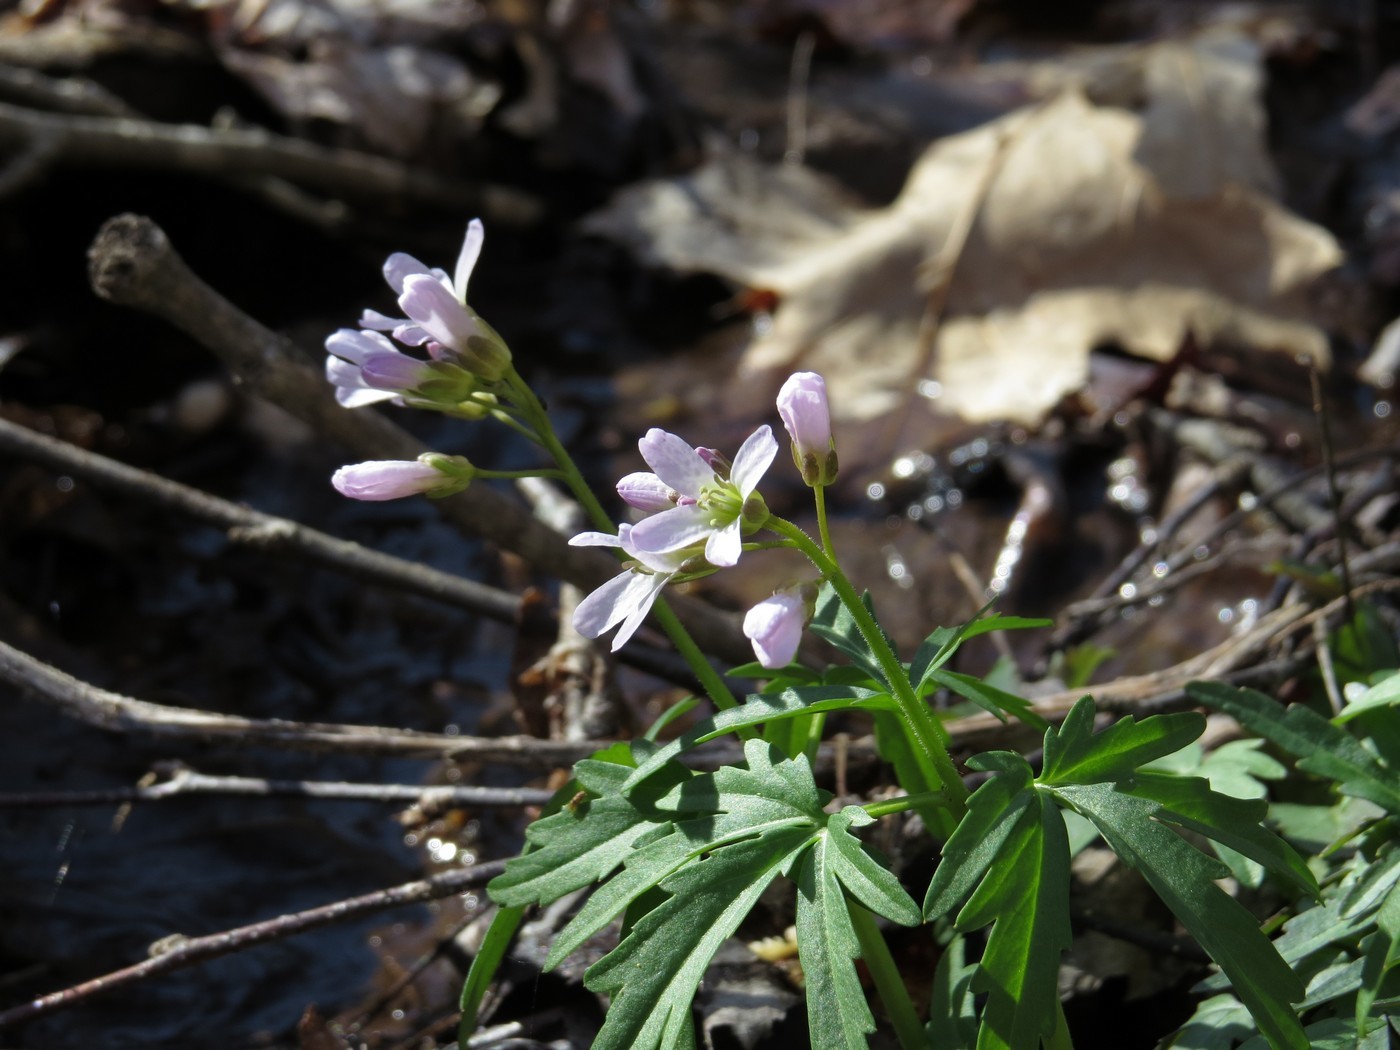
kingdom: Plantae
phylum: Tracheophyta
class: Magnoliopsida
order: Brassicales
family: Brassicaceae
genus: Cardamine
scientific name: Cardamine concatenata
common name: Cut-leaf toothcup
